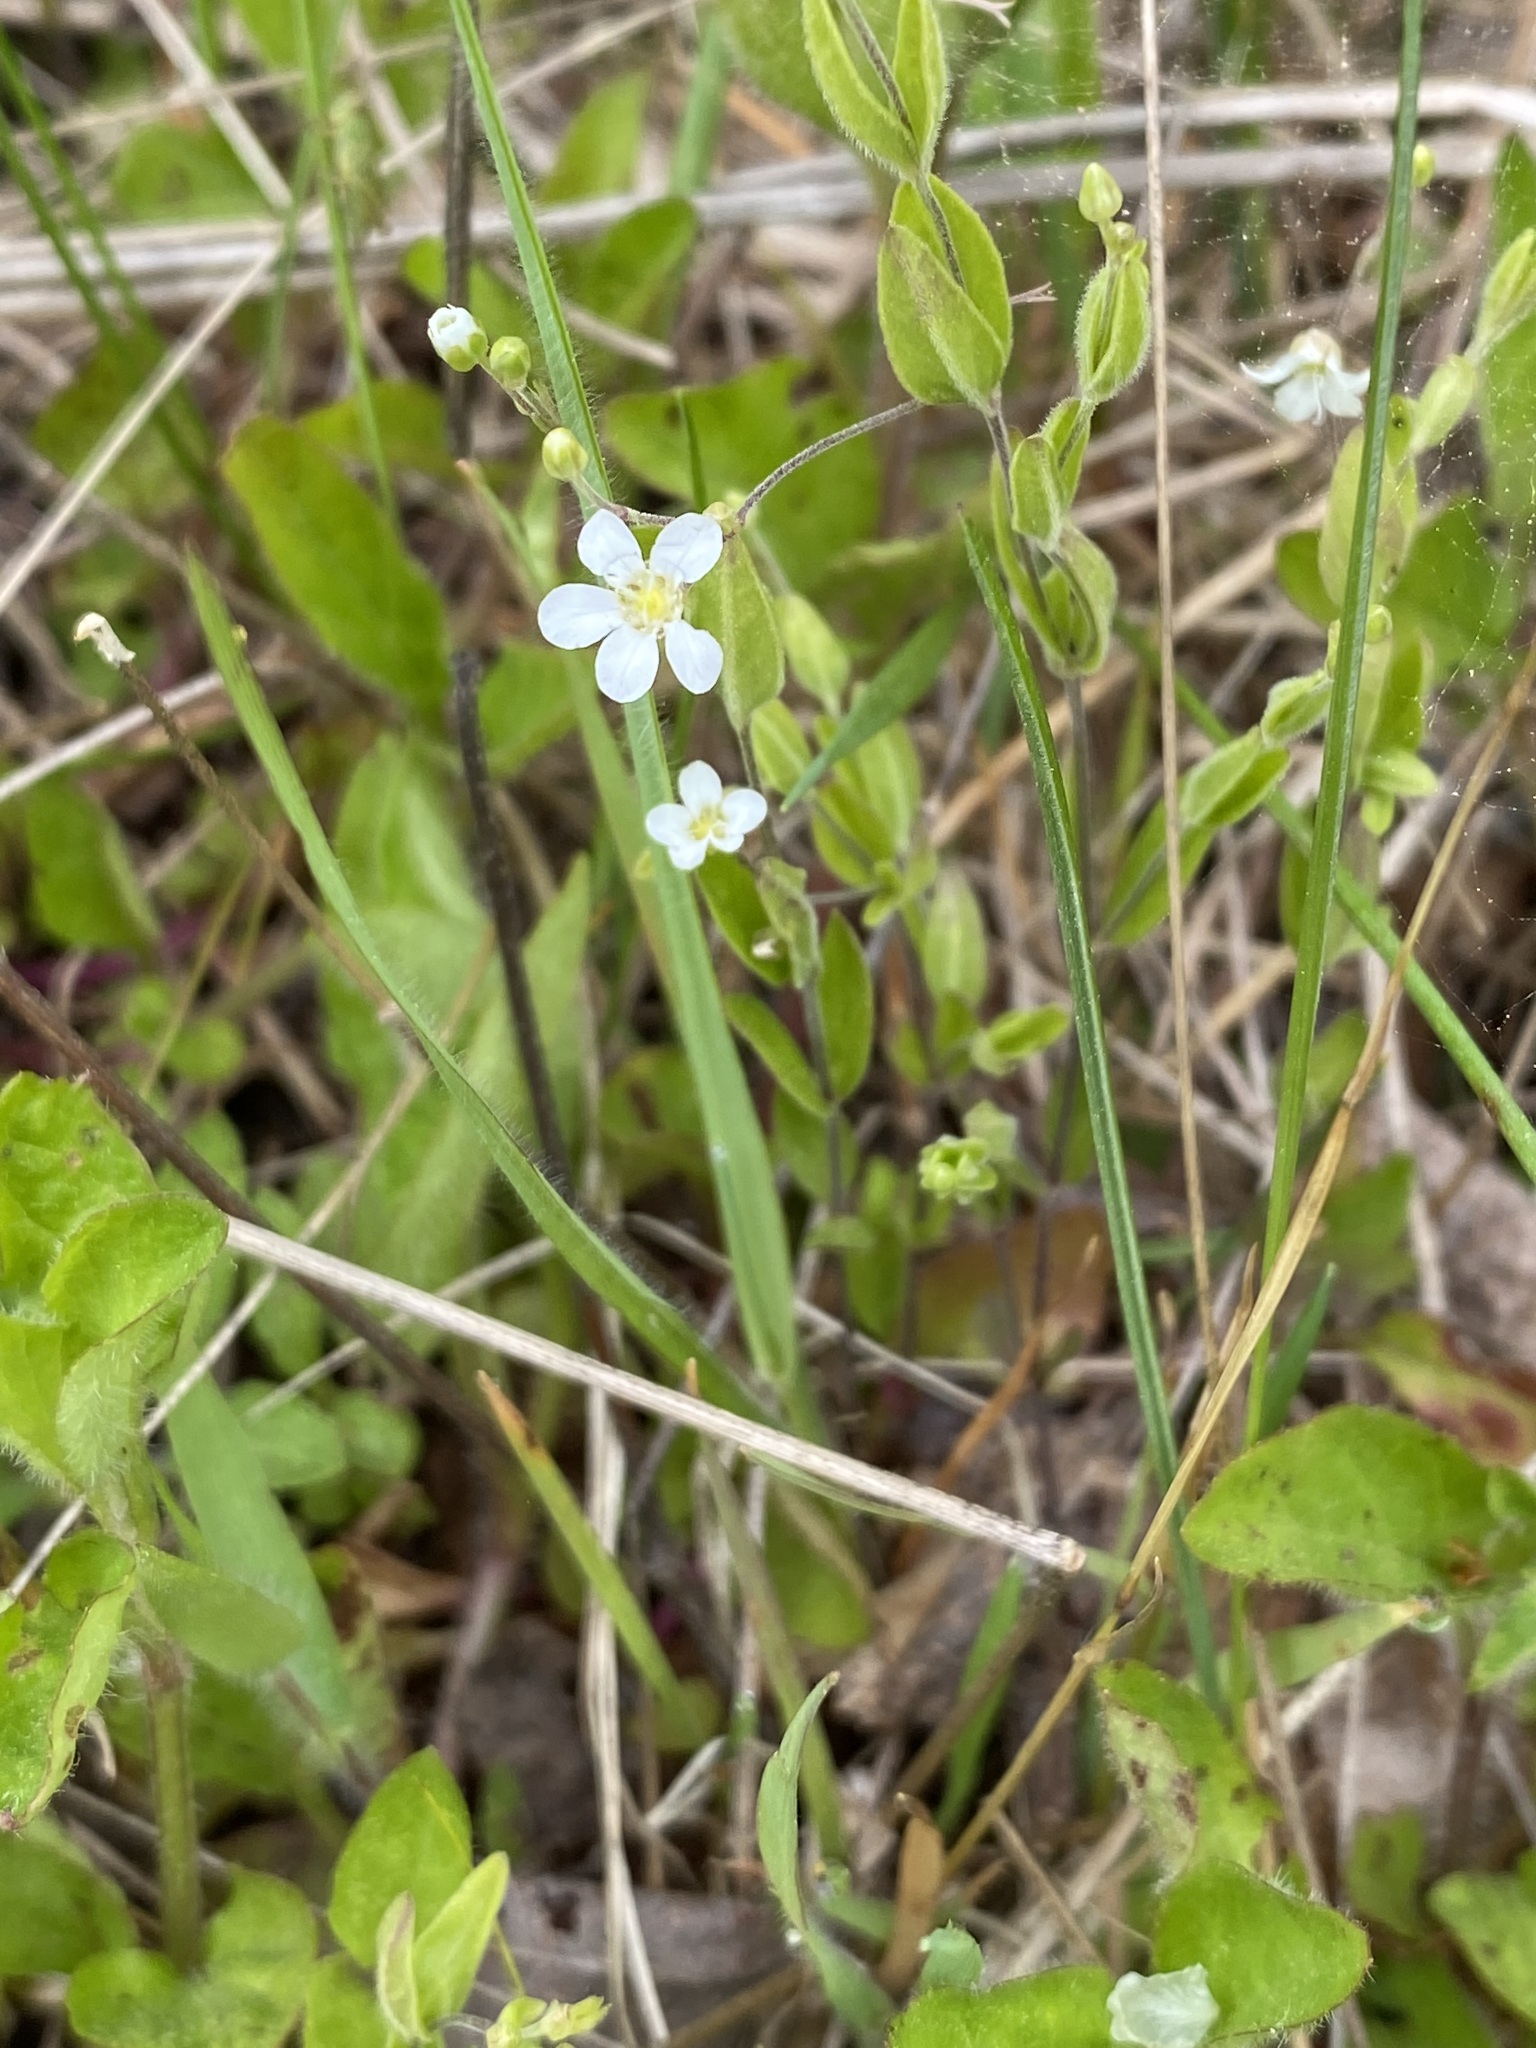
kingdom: Plantae
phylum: Tracheophyta
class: Magnoliopsida
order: Caryophyllales
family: Caryophyllaceae
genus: Moehringia
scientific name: Moehringia lateriflora
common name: Blunt-leaved sandwort
